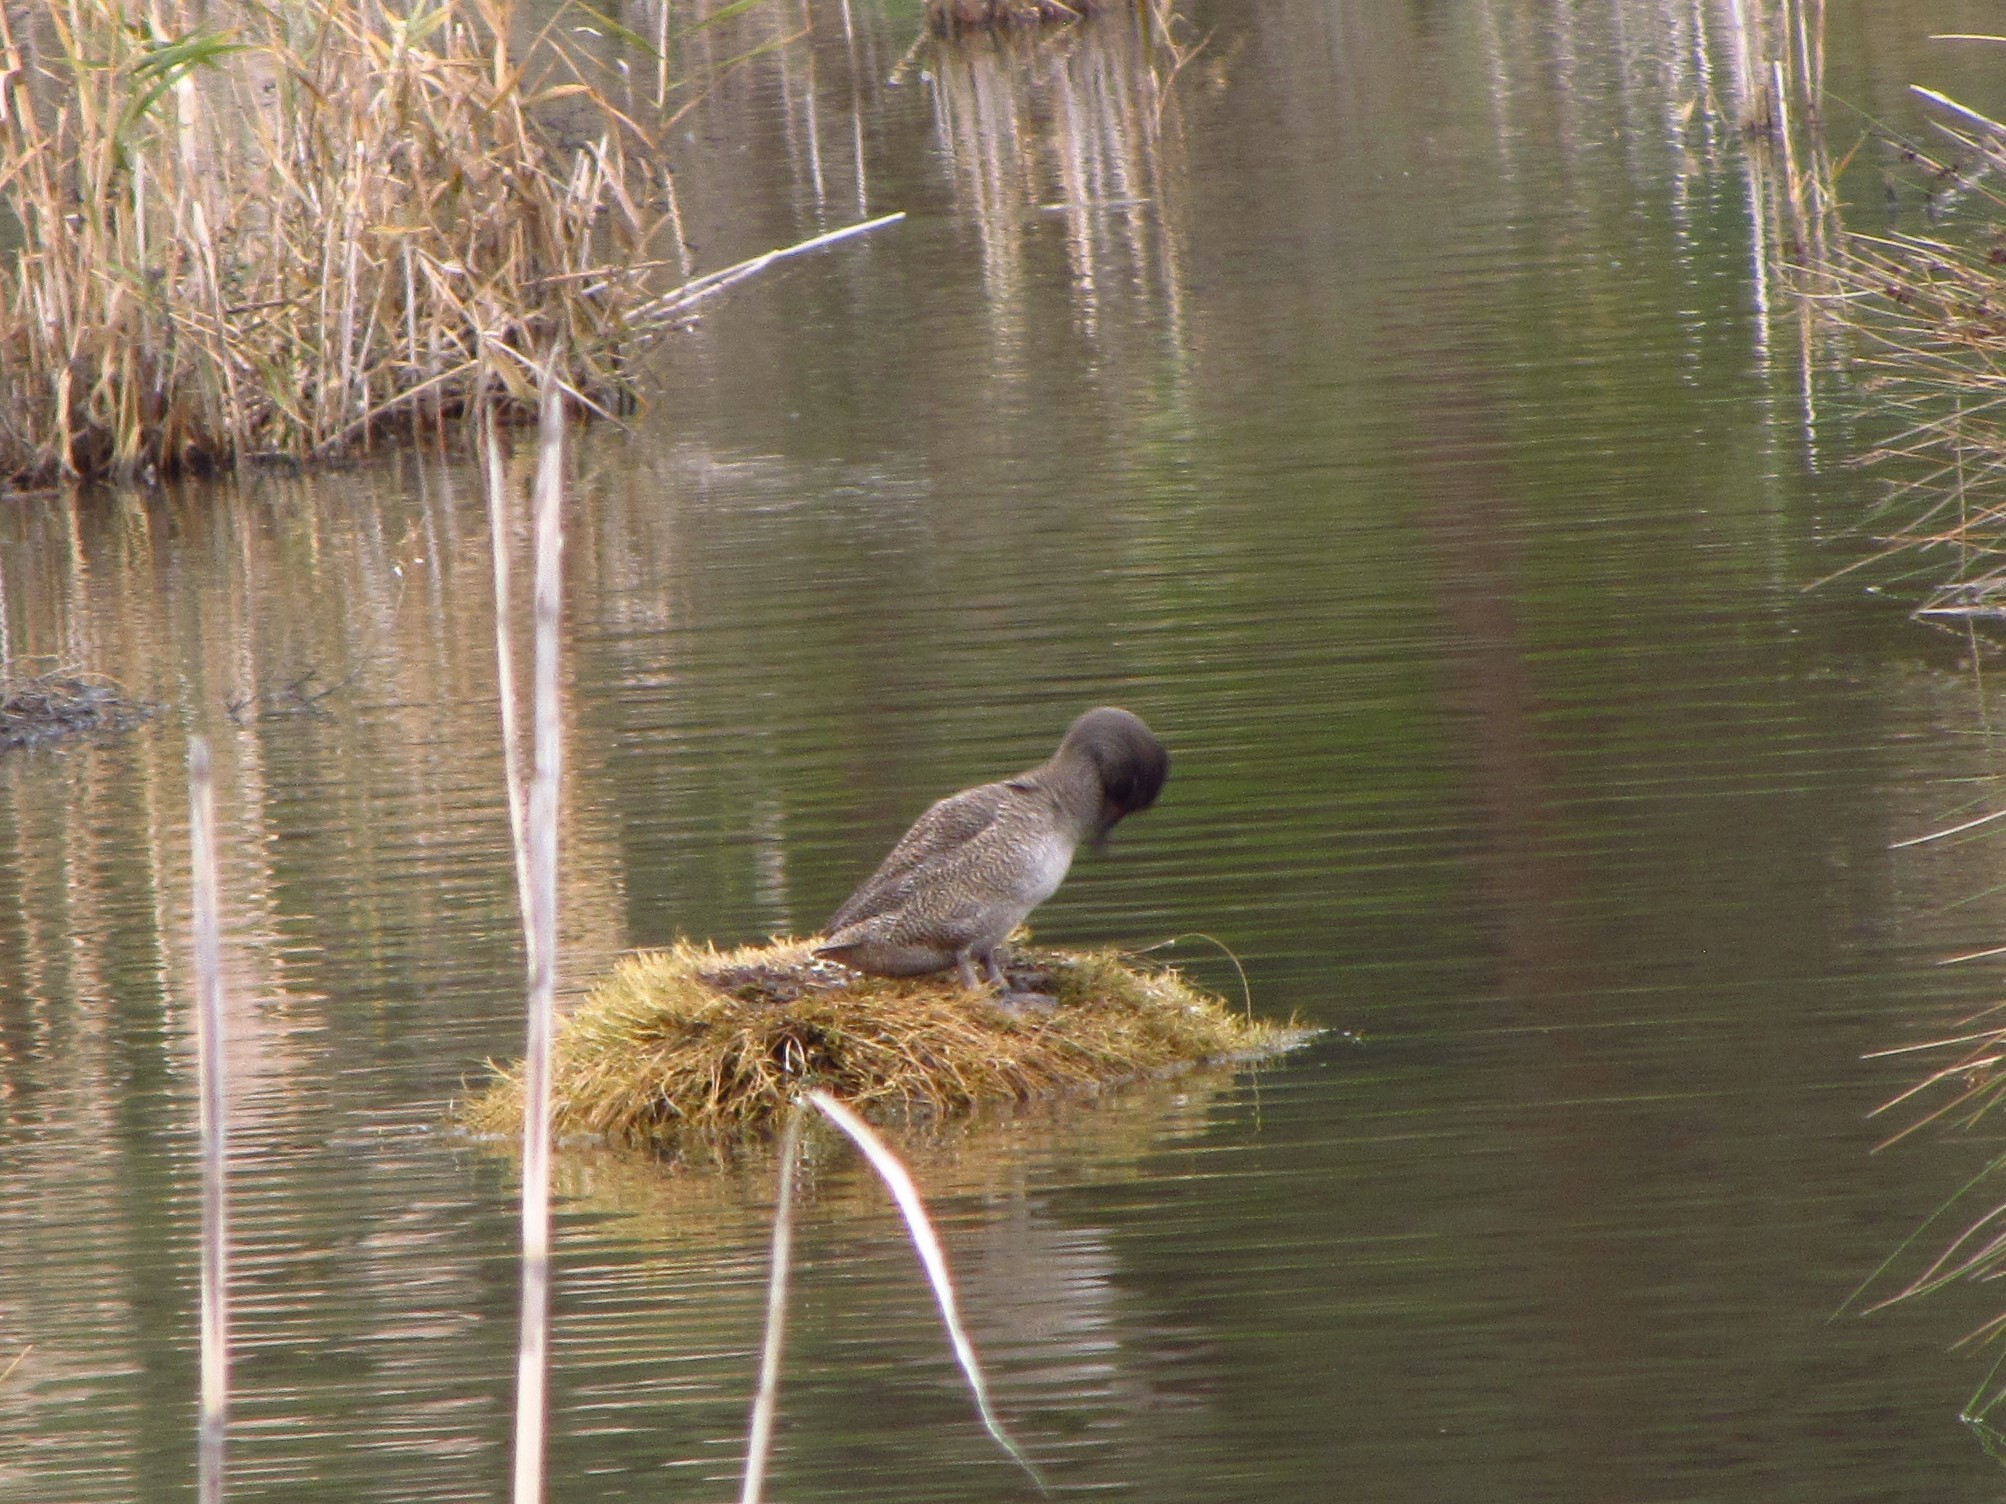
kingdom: Animalia
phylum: Chordata
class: Aves
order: Anseriformes
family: Anatidae
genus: Stictonetta
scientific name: Stictonetta naevosa
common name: Freckled duck
